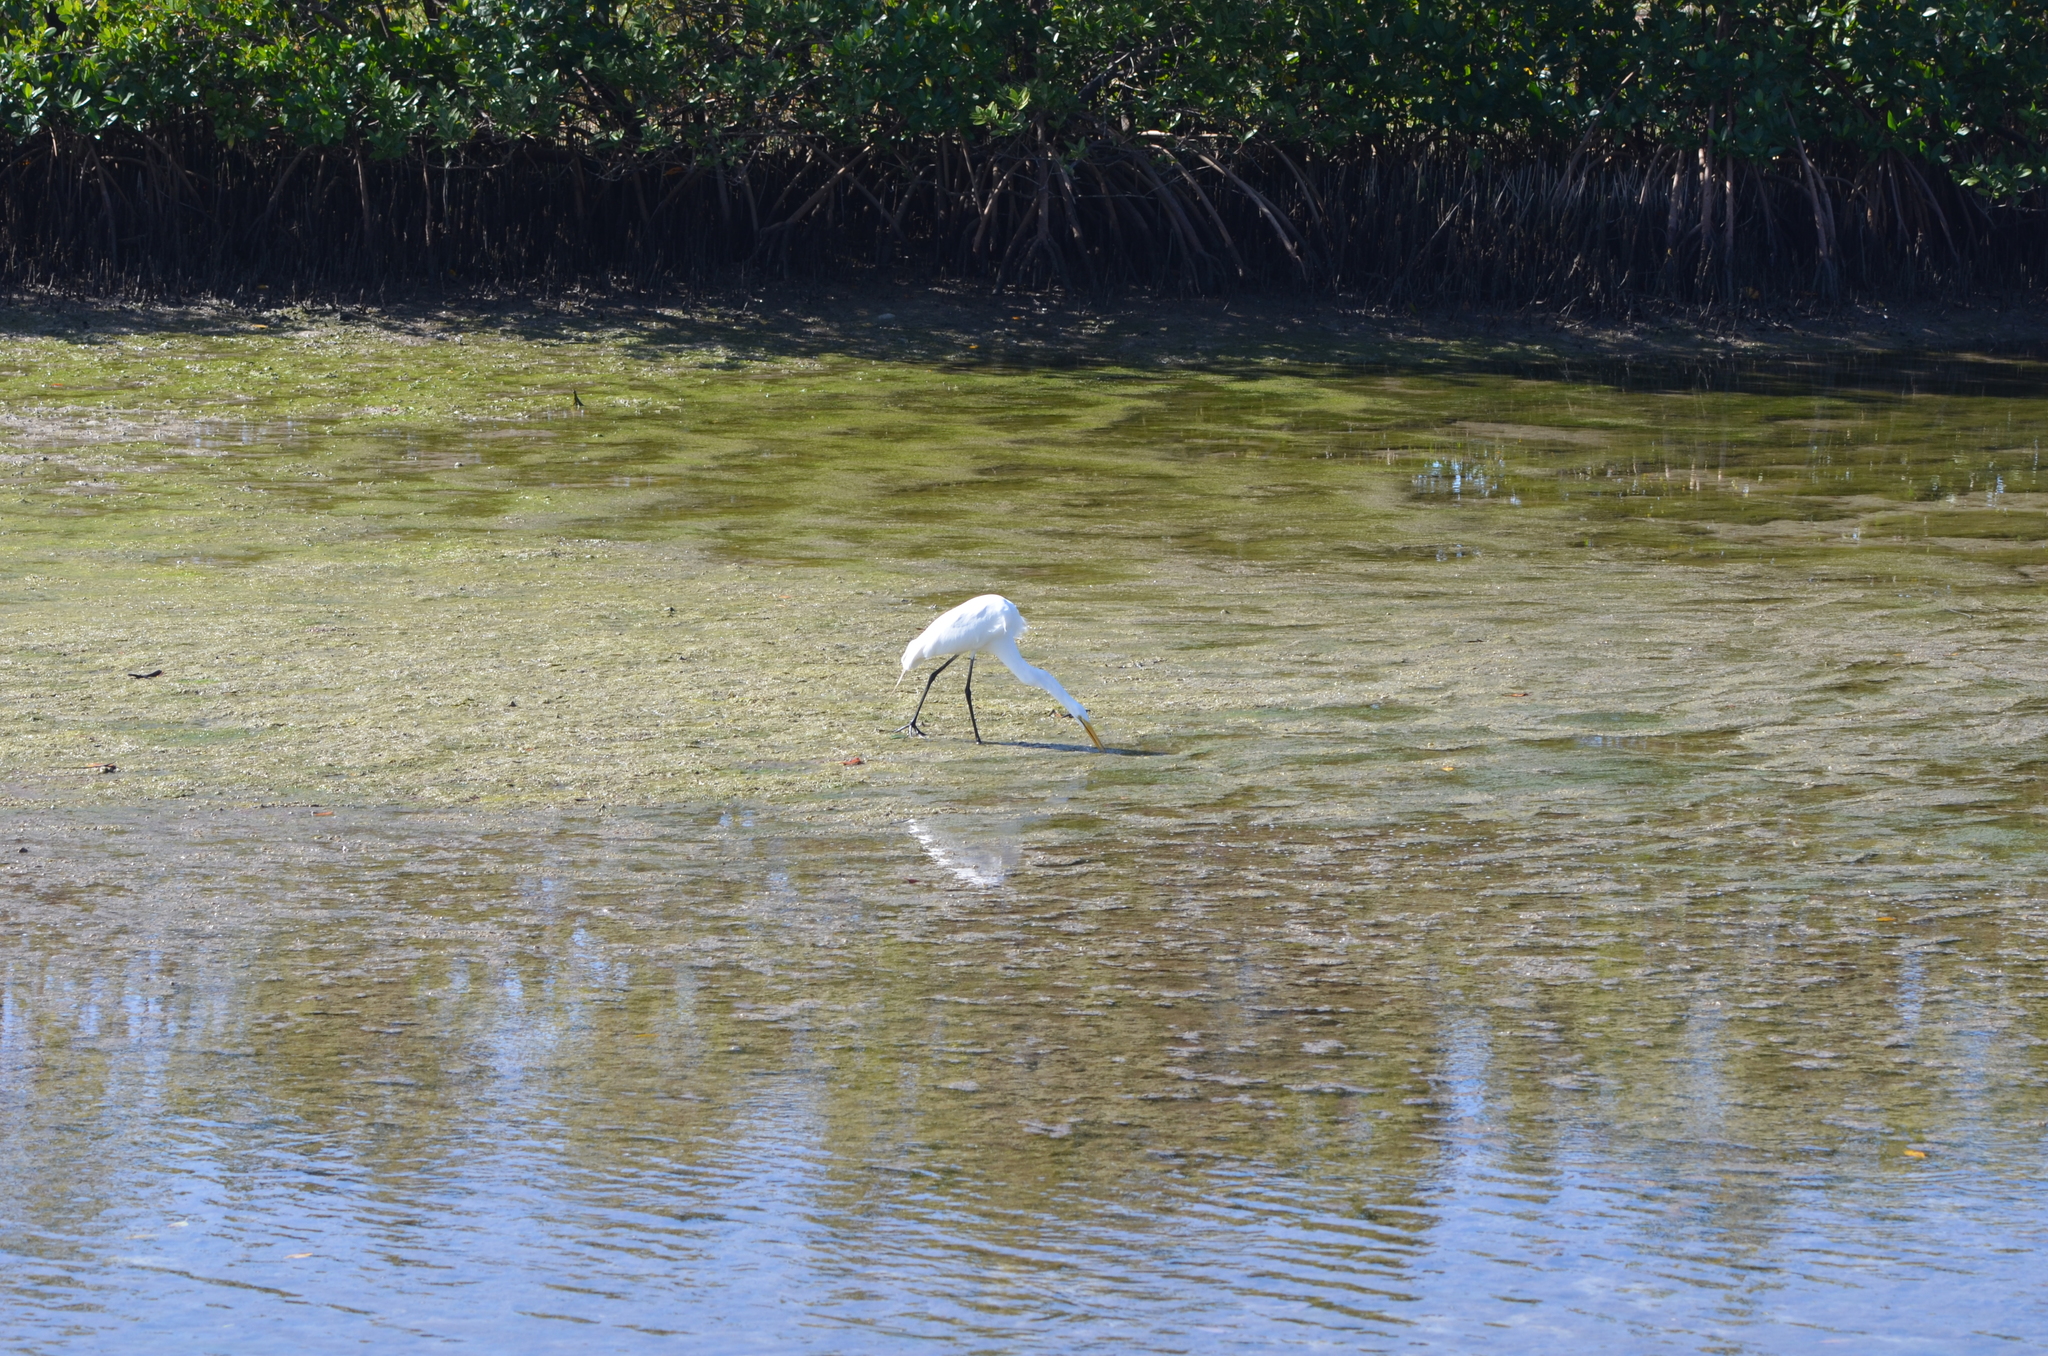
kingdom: Animalia
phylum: Chordata
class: Aves
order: Pelecaniformes
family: Ardeidae
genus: Ardea
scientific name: Ardea alba
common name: Great egret
